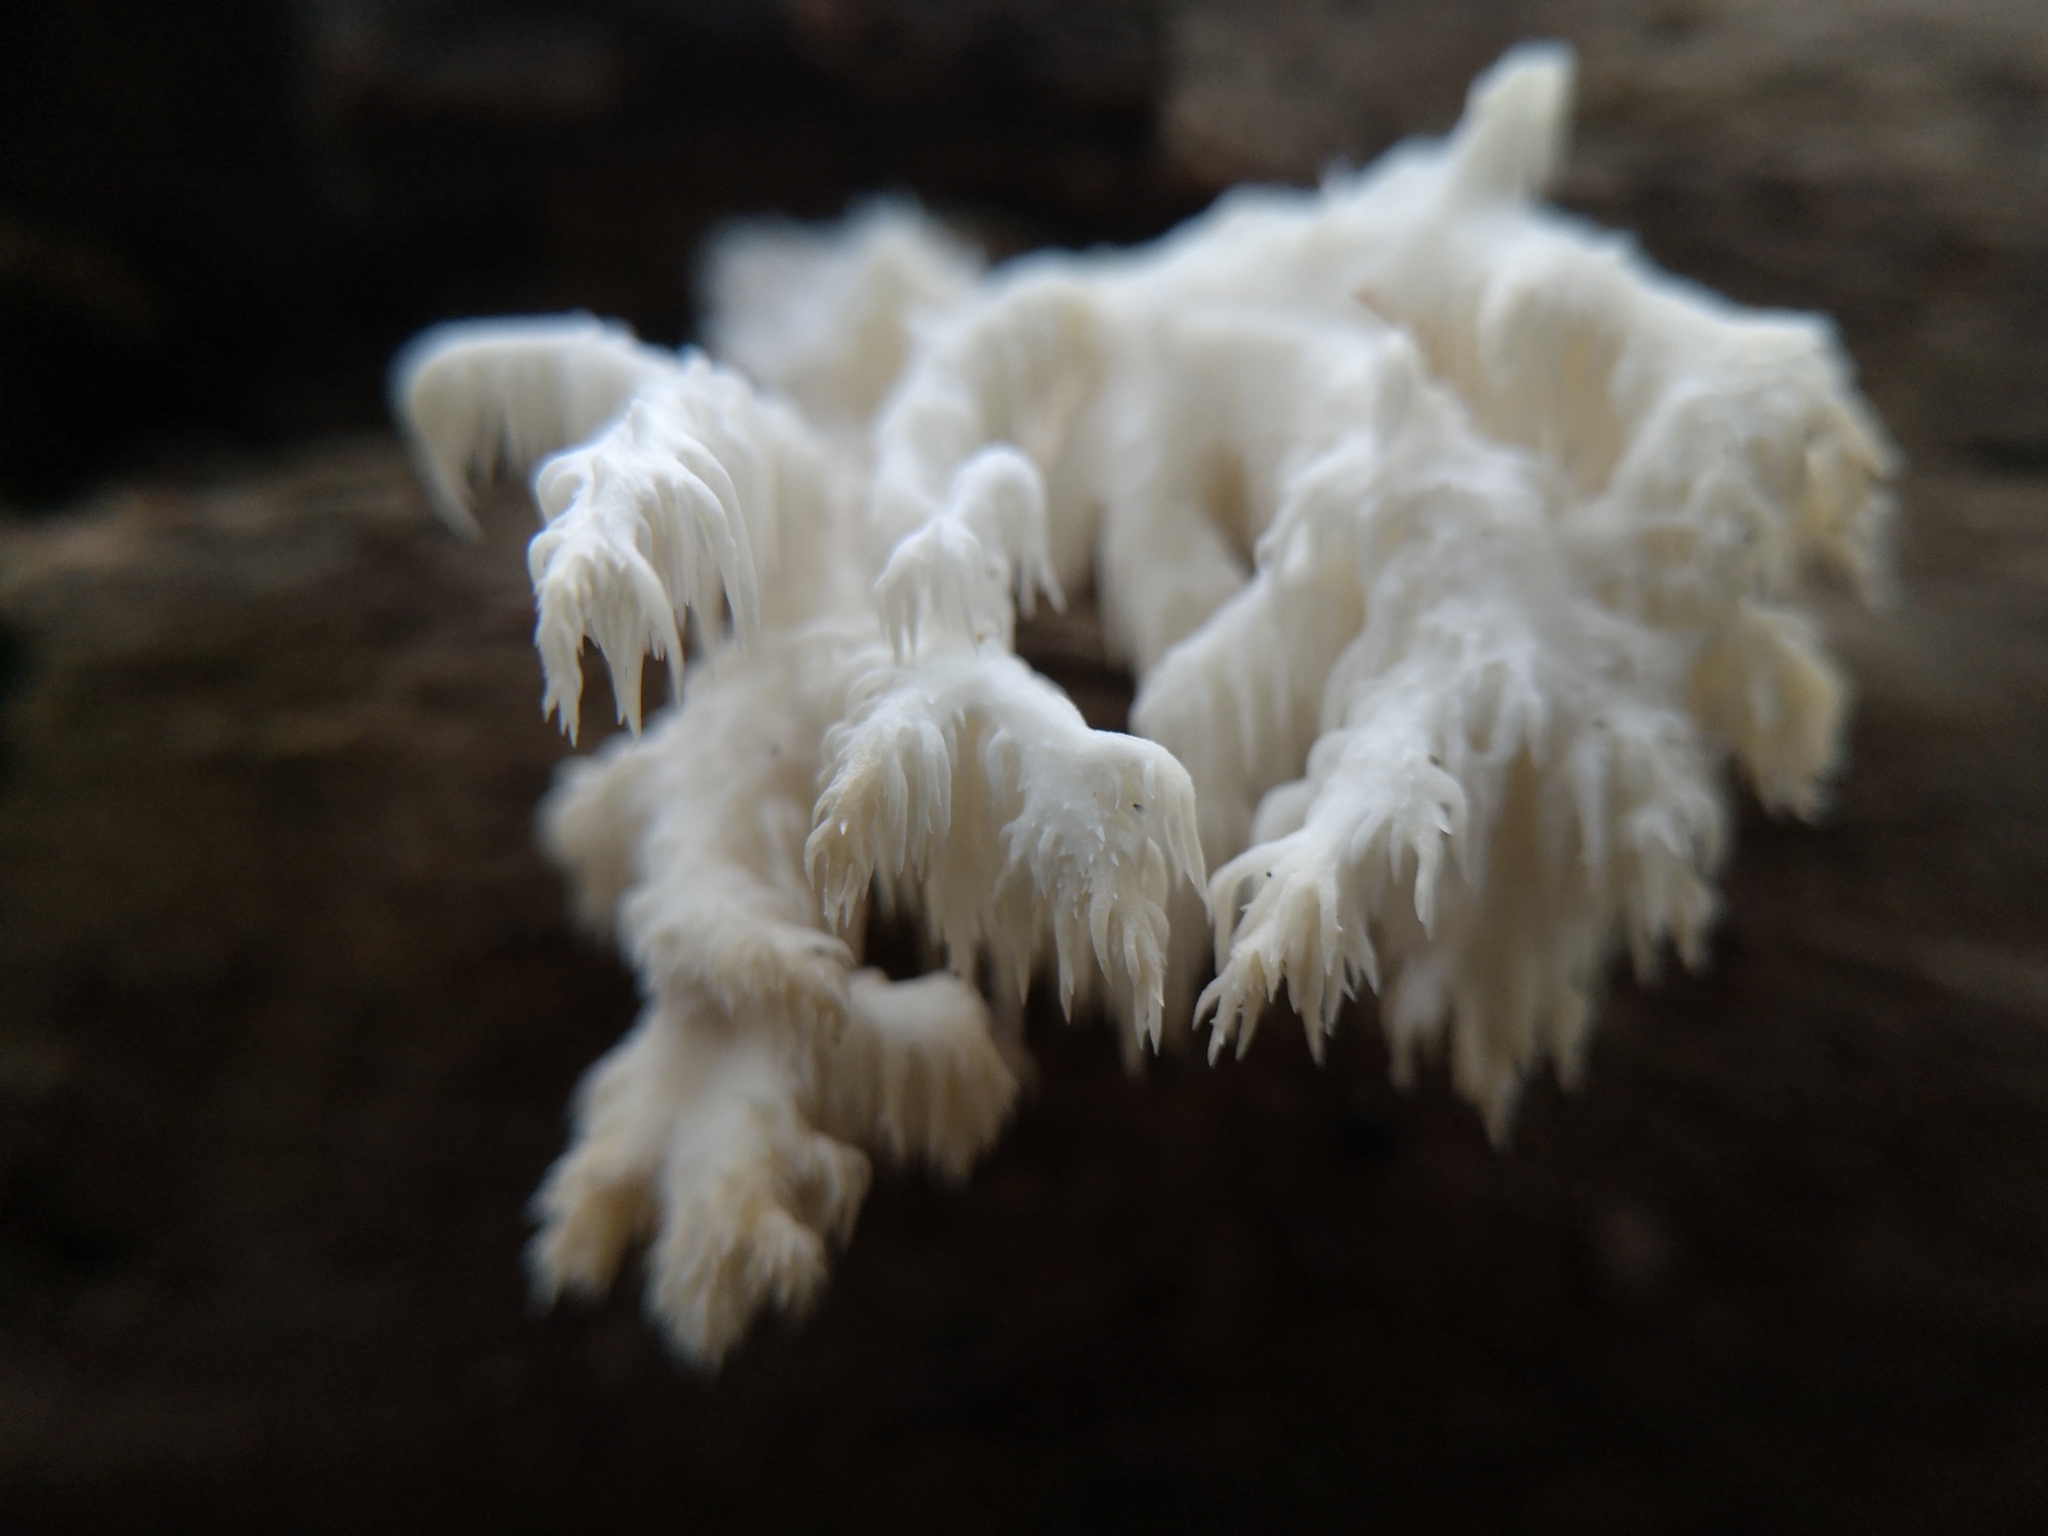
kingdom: Fungi
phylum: Basidiomycota
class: Agaricomycetes
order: Russulales
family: Hericiaceae
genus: Hericium
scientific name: Hericium coralloides
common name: Coral tooth
